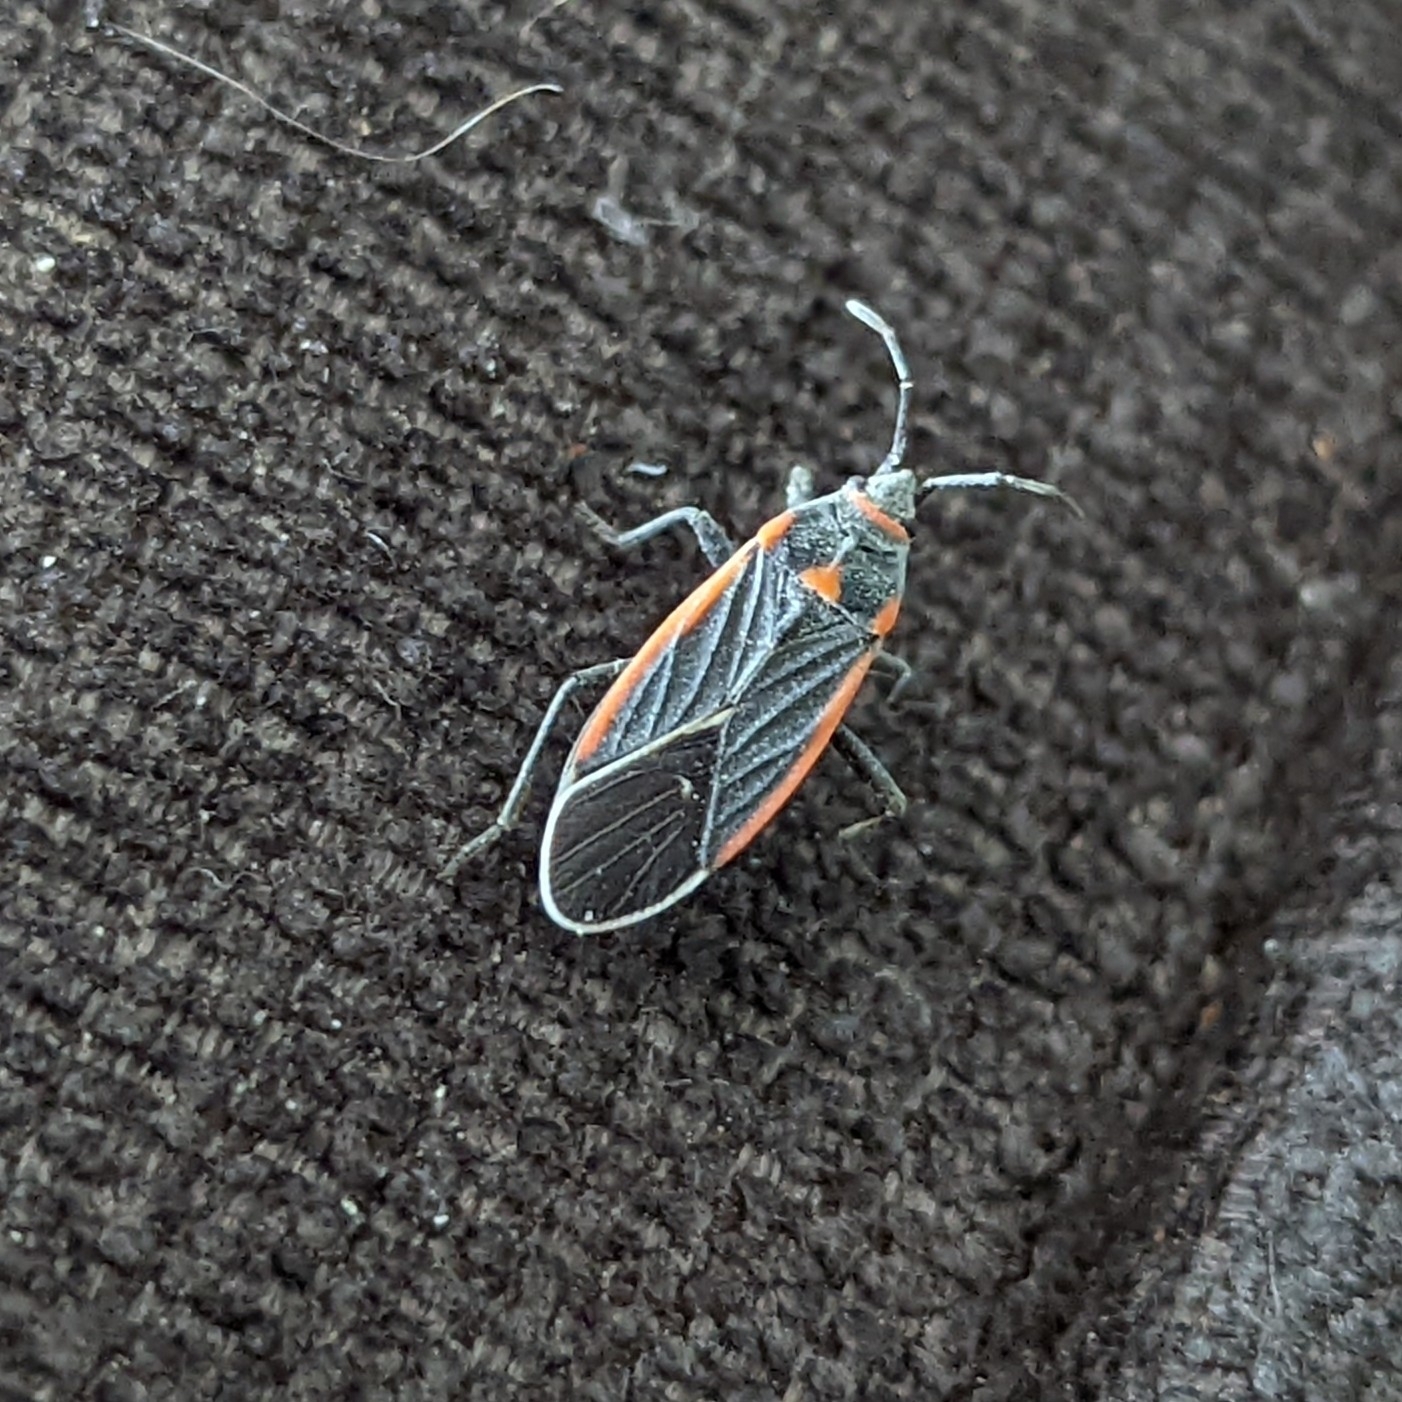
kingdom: Animalia
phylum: Arthropoda
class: Insecta
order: Hemiptera
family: Lygaeidae
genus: Melacoryphus
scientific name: Melacoryphus lateralis
